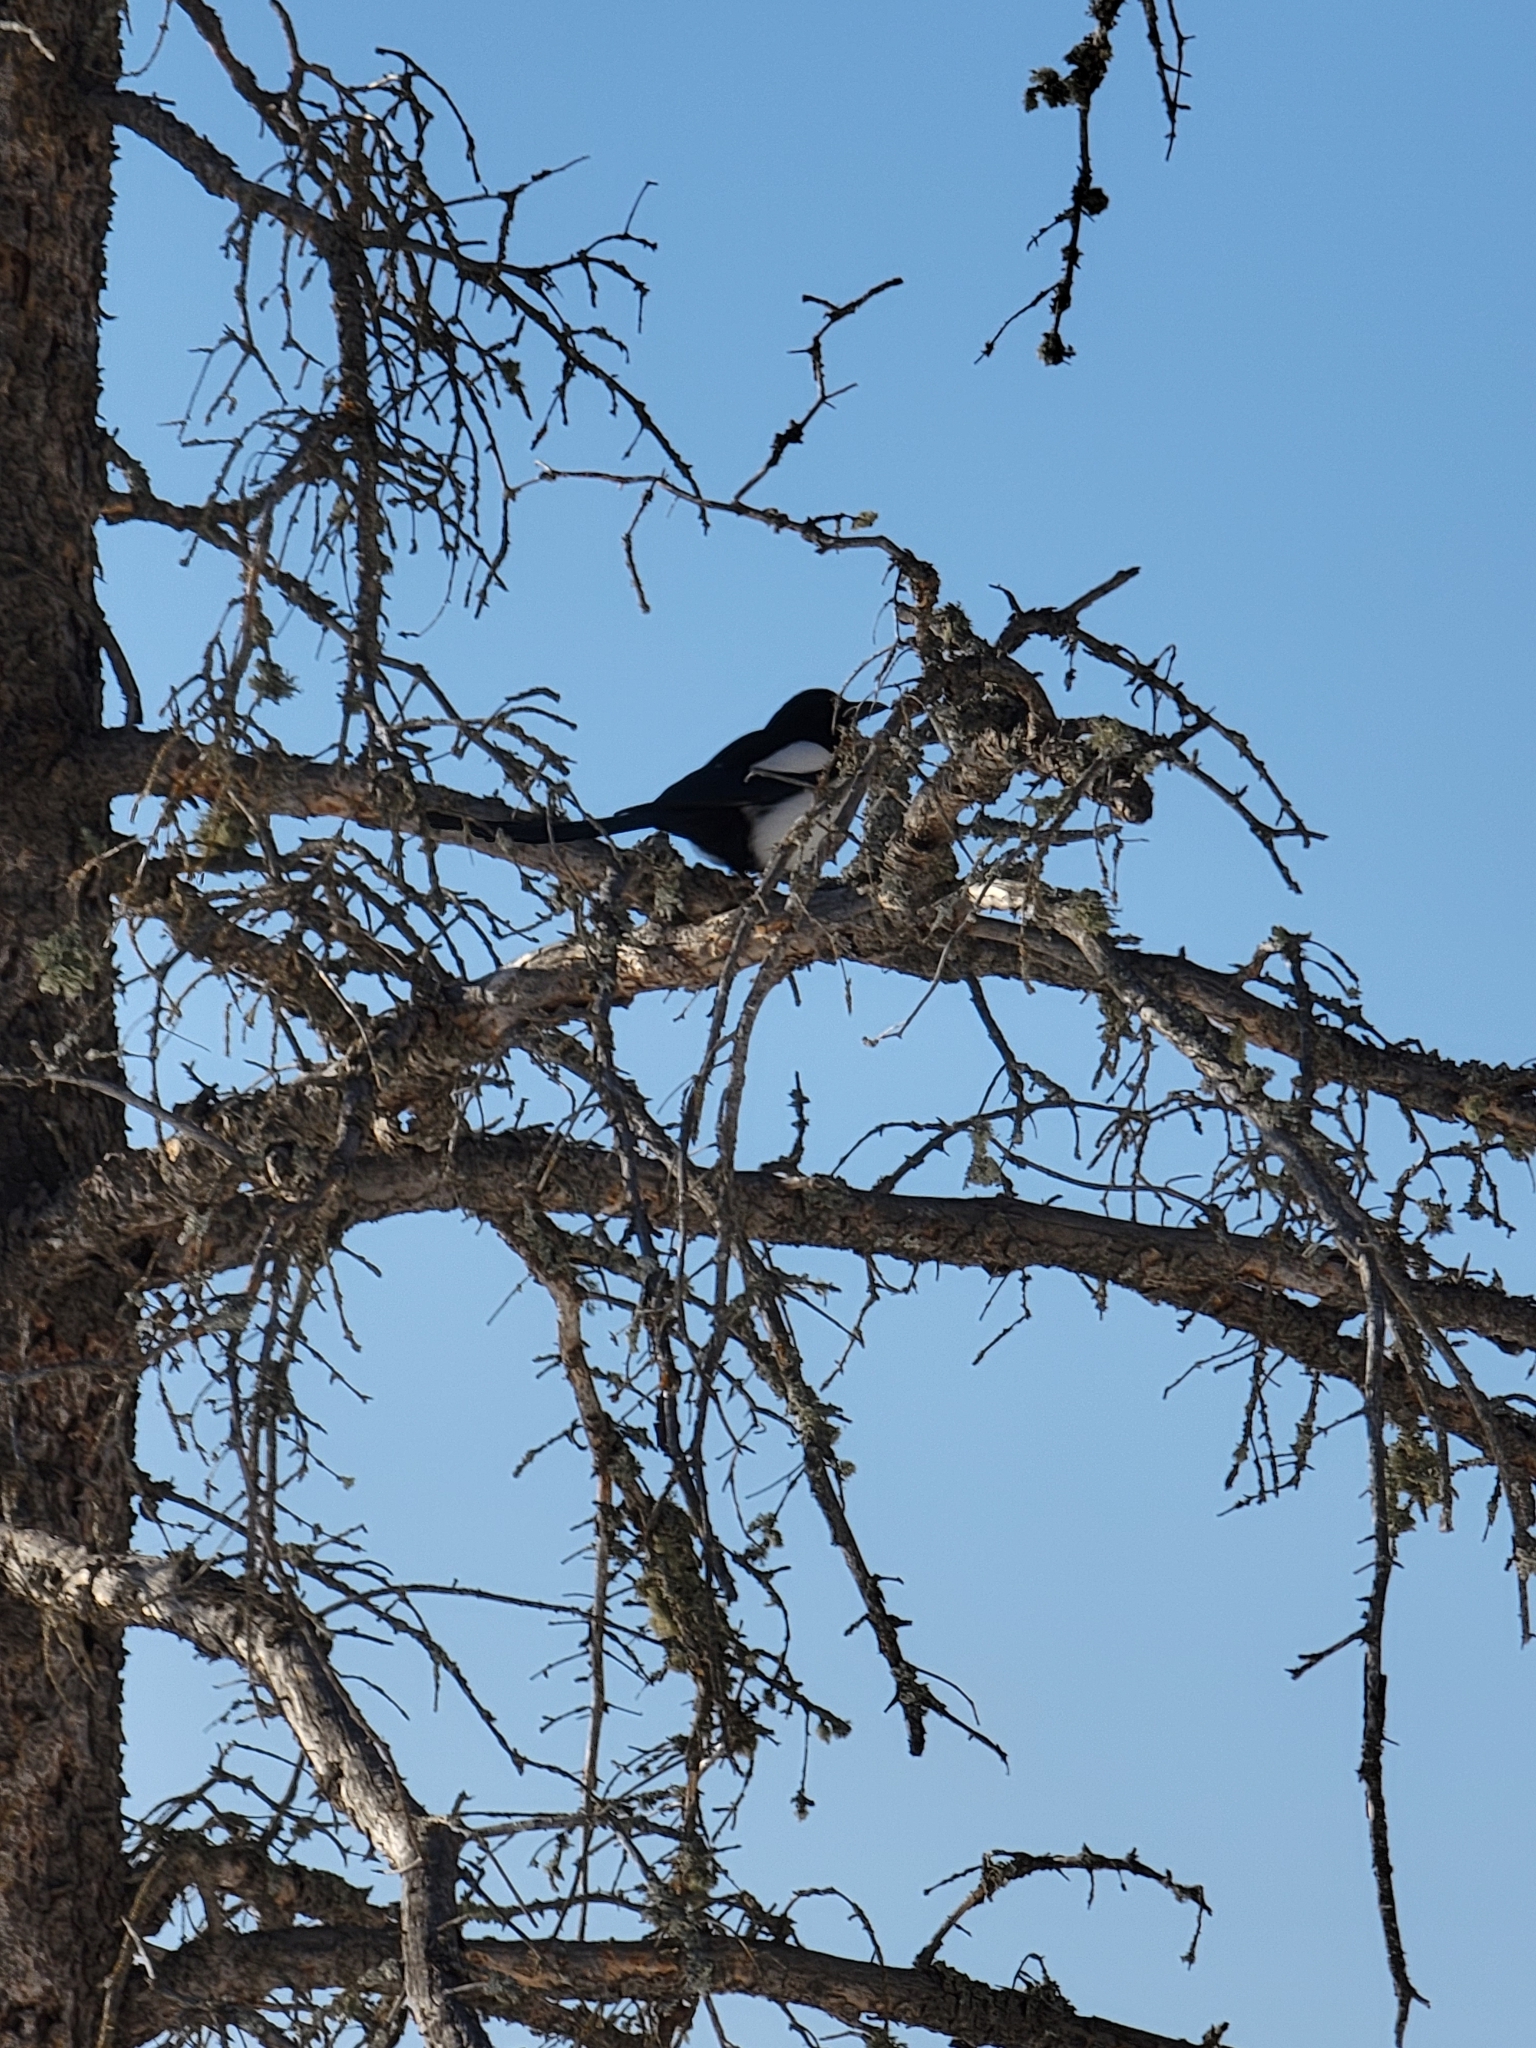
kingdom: Animalia
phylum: Chordata
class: Aves
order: Passeriformes
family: Corvidae
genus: Pica
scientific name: Pica hudsonia
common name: Black-billed magpie
